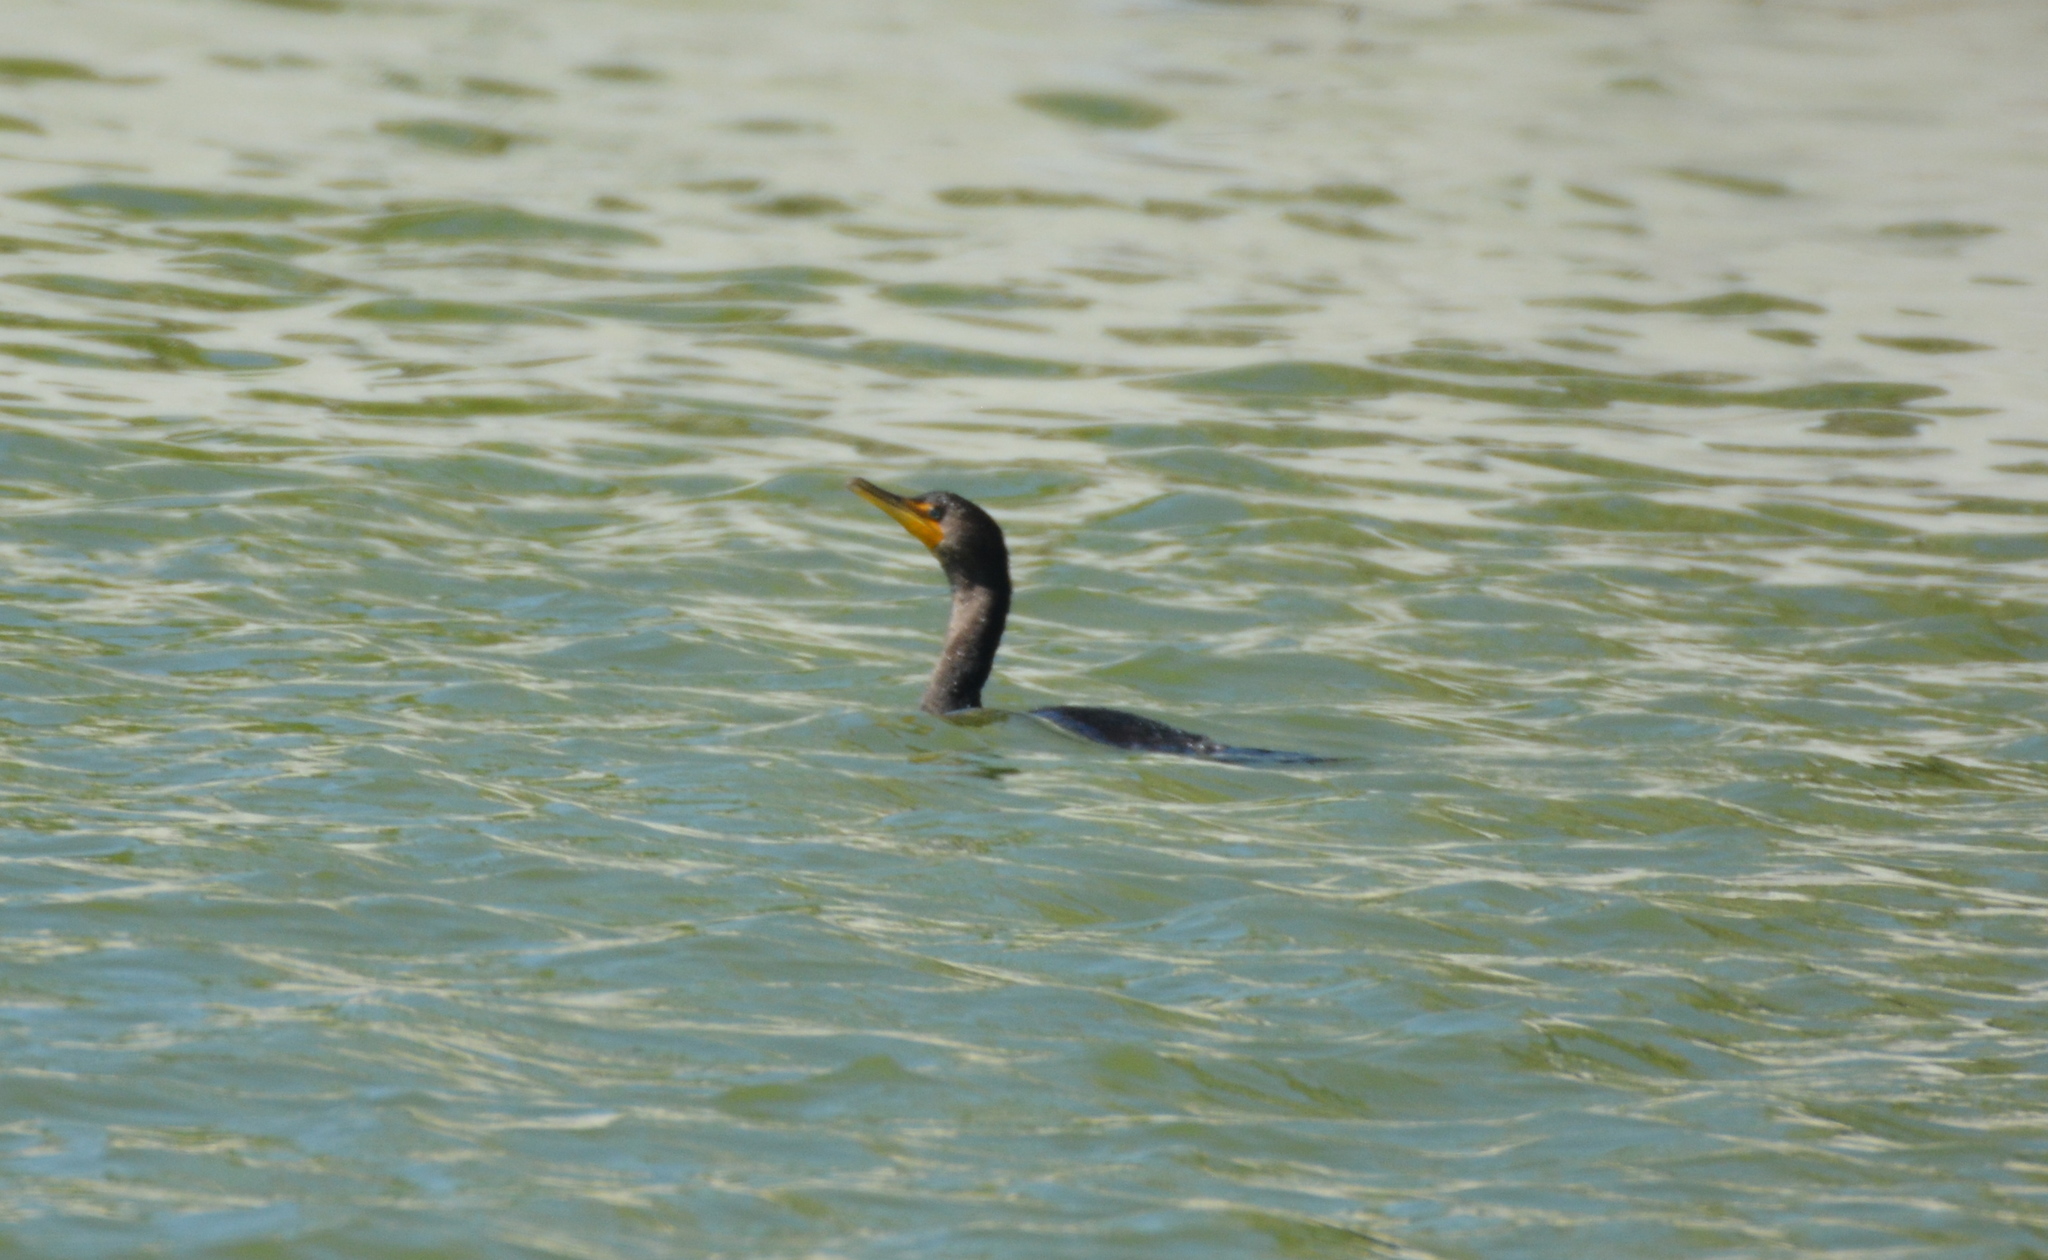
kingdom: Animalia
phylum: Chordata
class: Aves
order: Suliformes
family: Phalacrocoracidae
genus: Phalacrocorax
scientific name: Phalacrocorax auritus
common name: Double-crested cormorant
